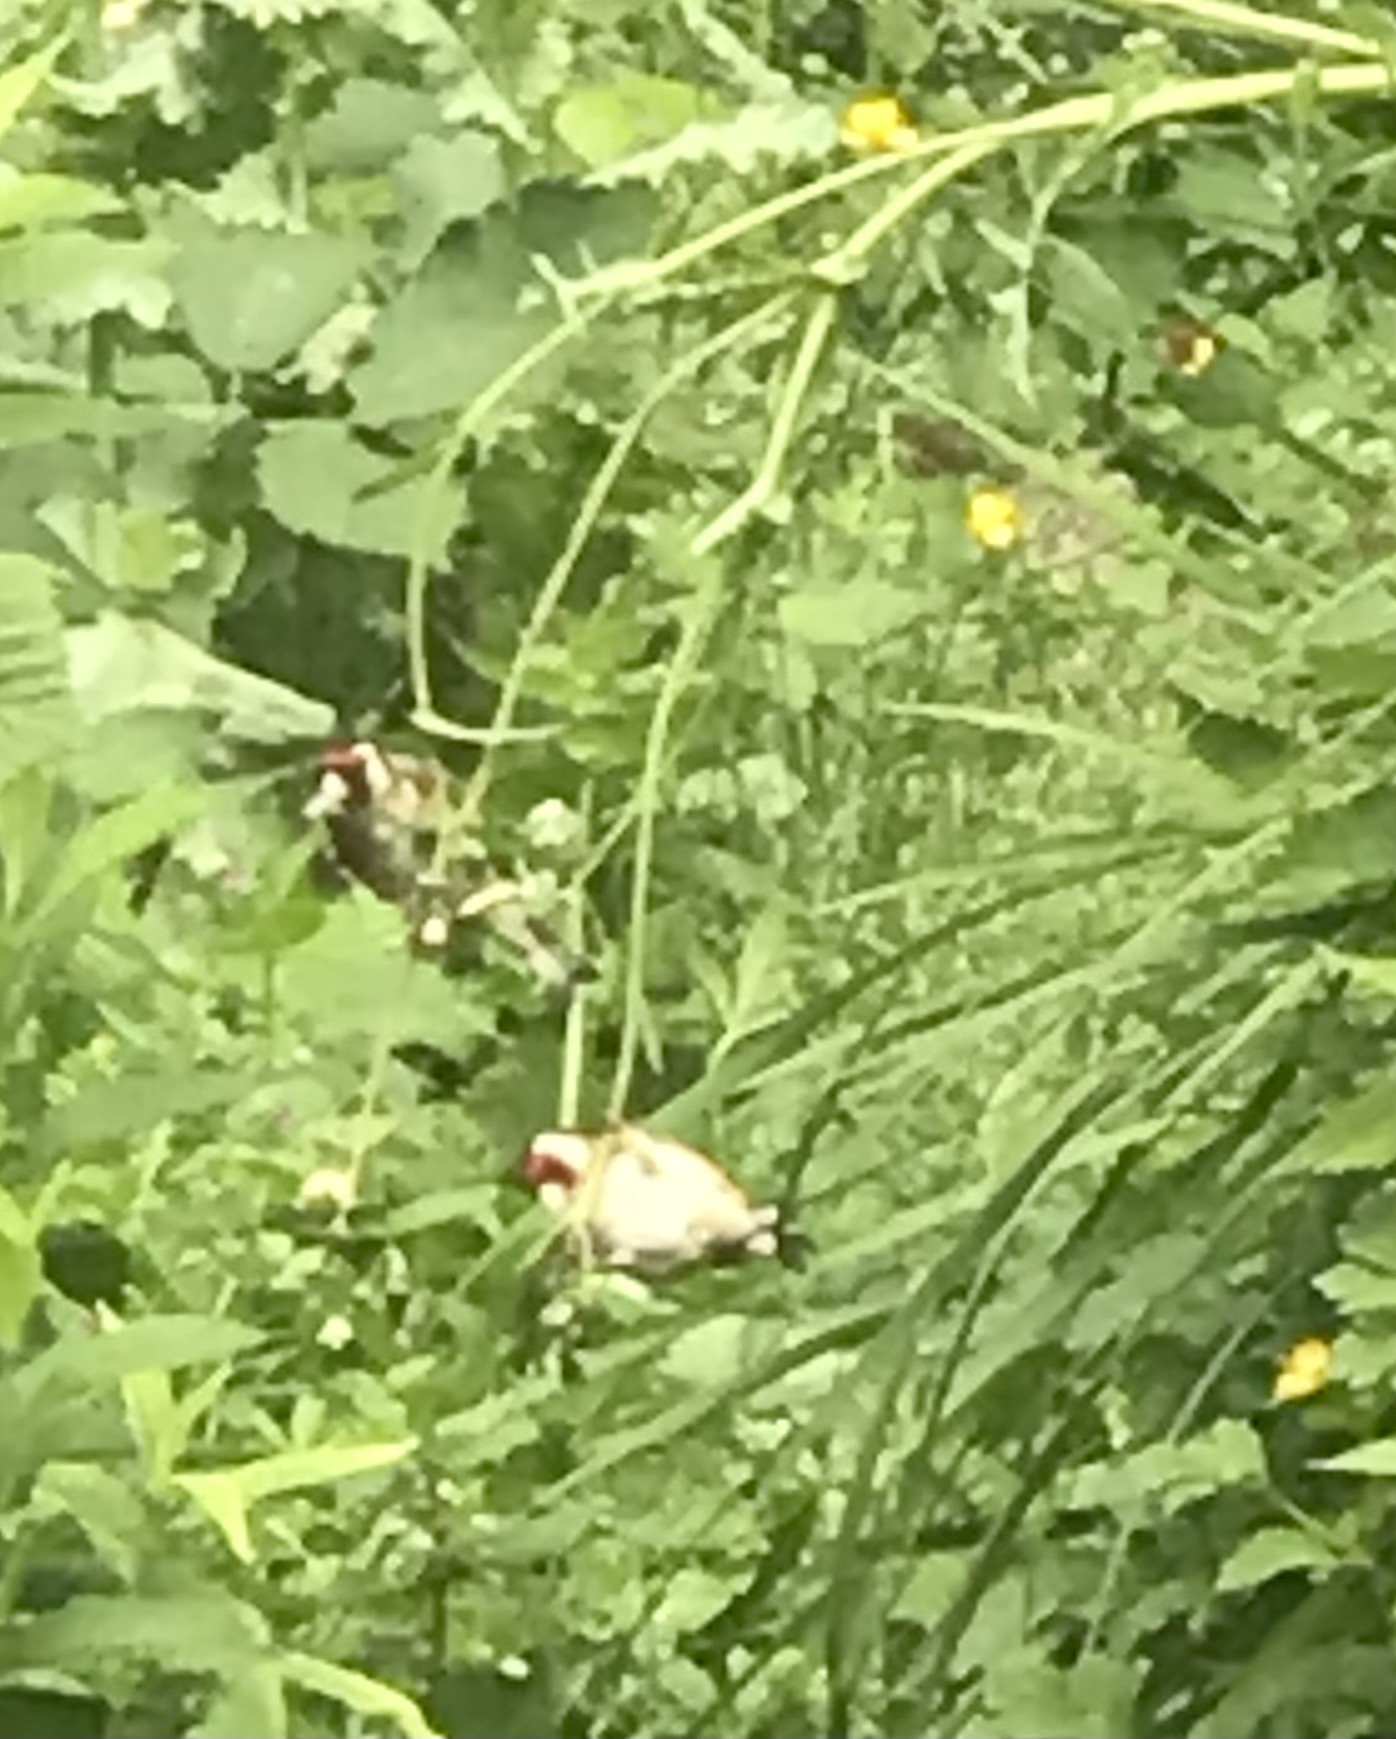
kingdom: Animalia
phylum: Chordata
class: Aves
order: Passeriformes
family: Fringillidae
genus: Carduelis
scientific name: Carduelis carduelis
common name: European goldfinch
